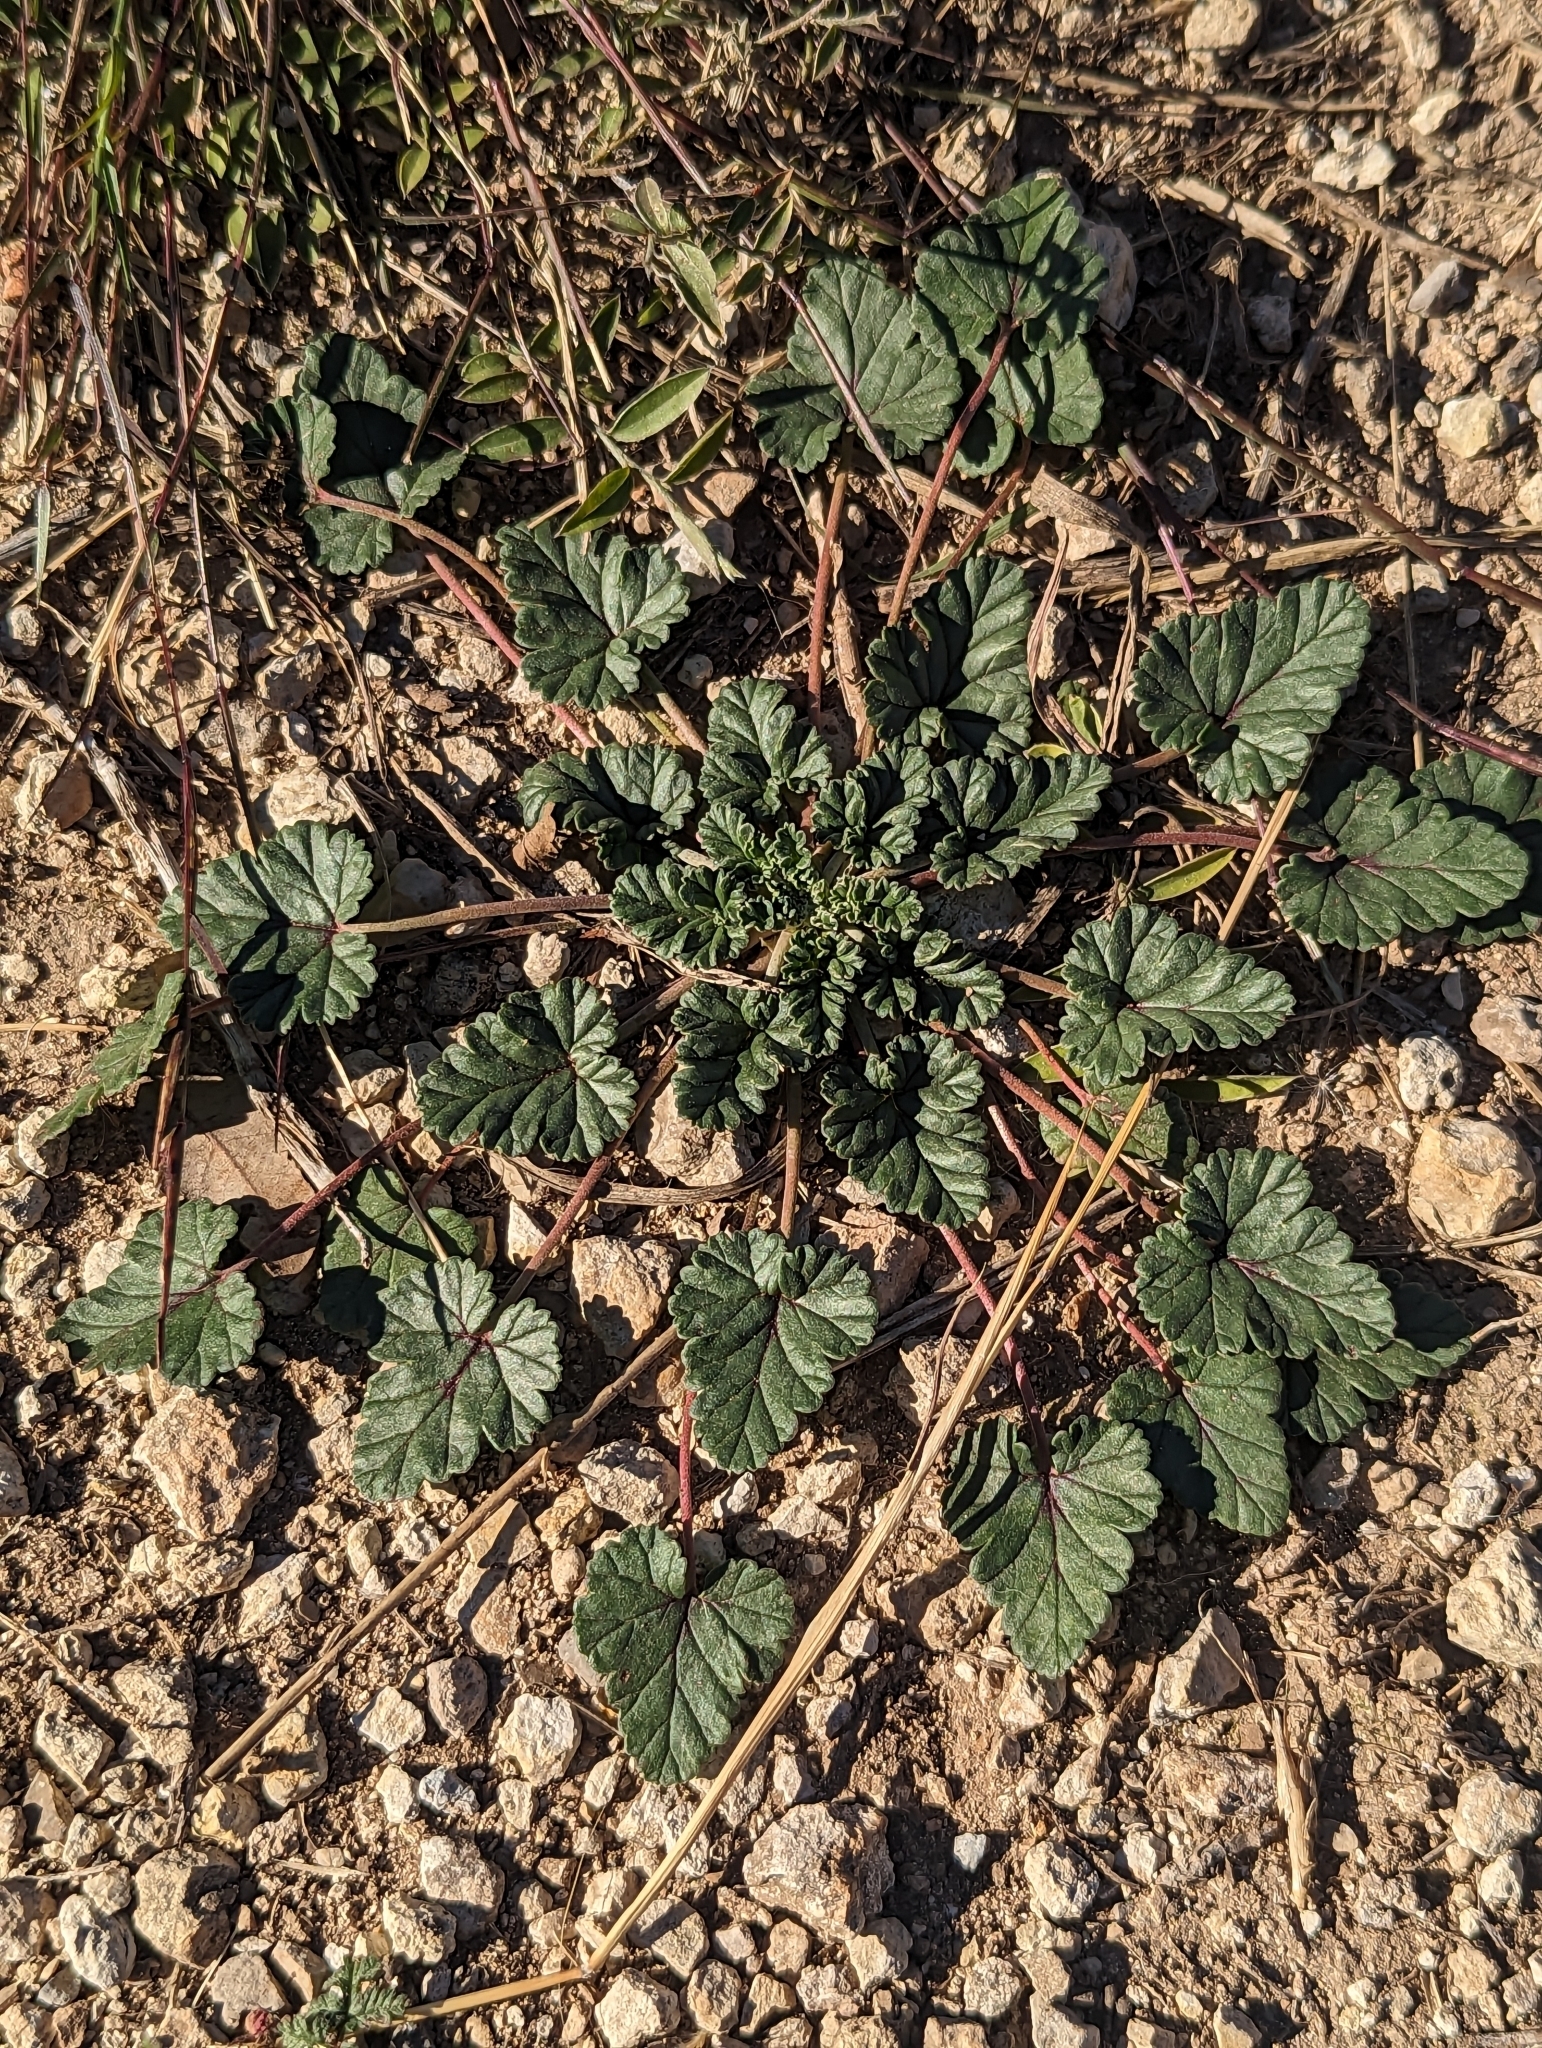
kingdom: Plantae
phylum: Tracheophyta
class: Magnoliopsida
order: Geraniales
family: Geraniaceae
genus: Erodium
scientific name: Erodium texanum
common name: Texas stork's-bill
